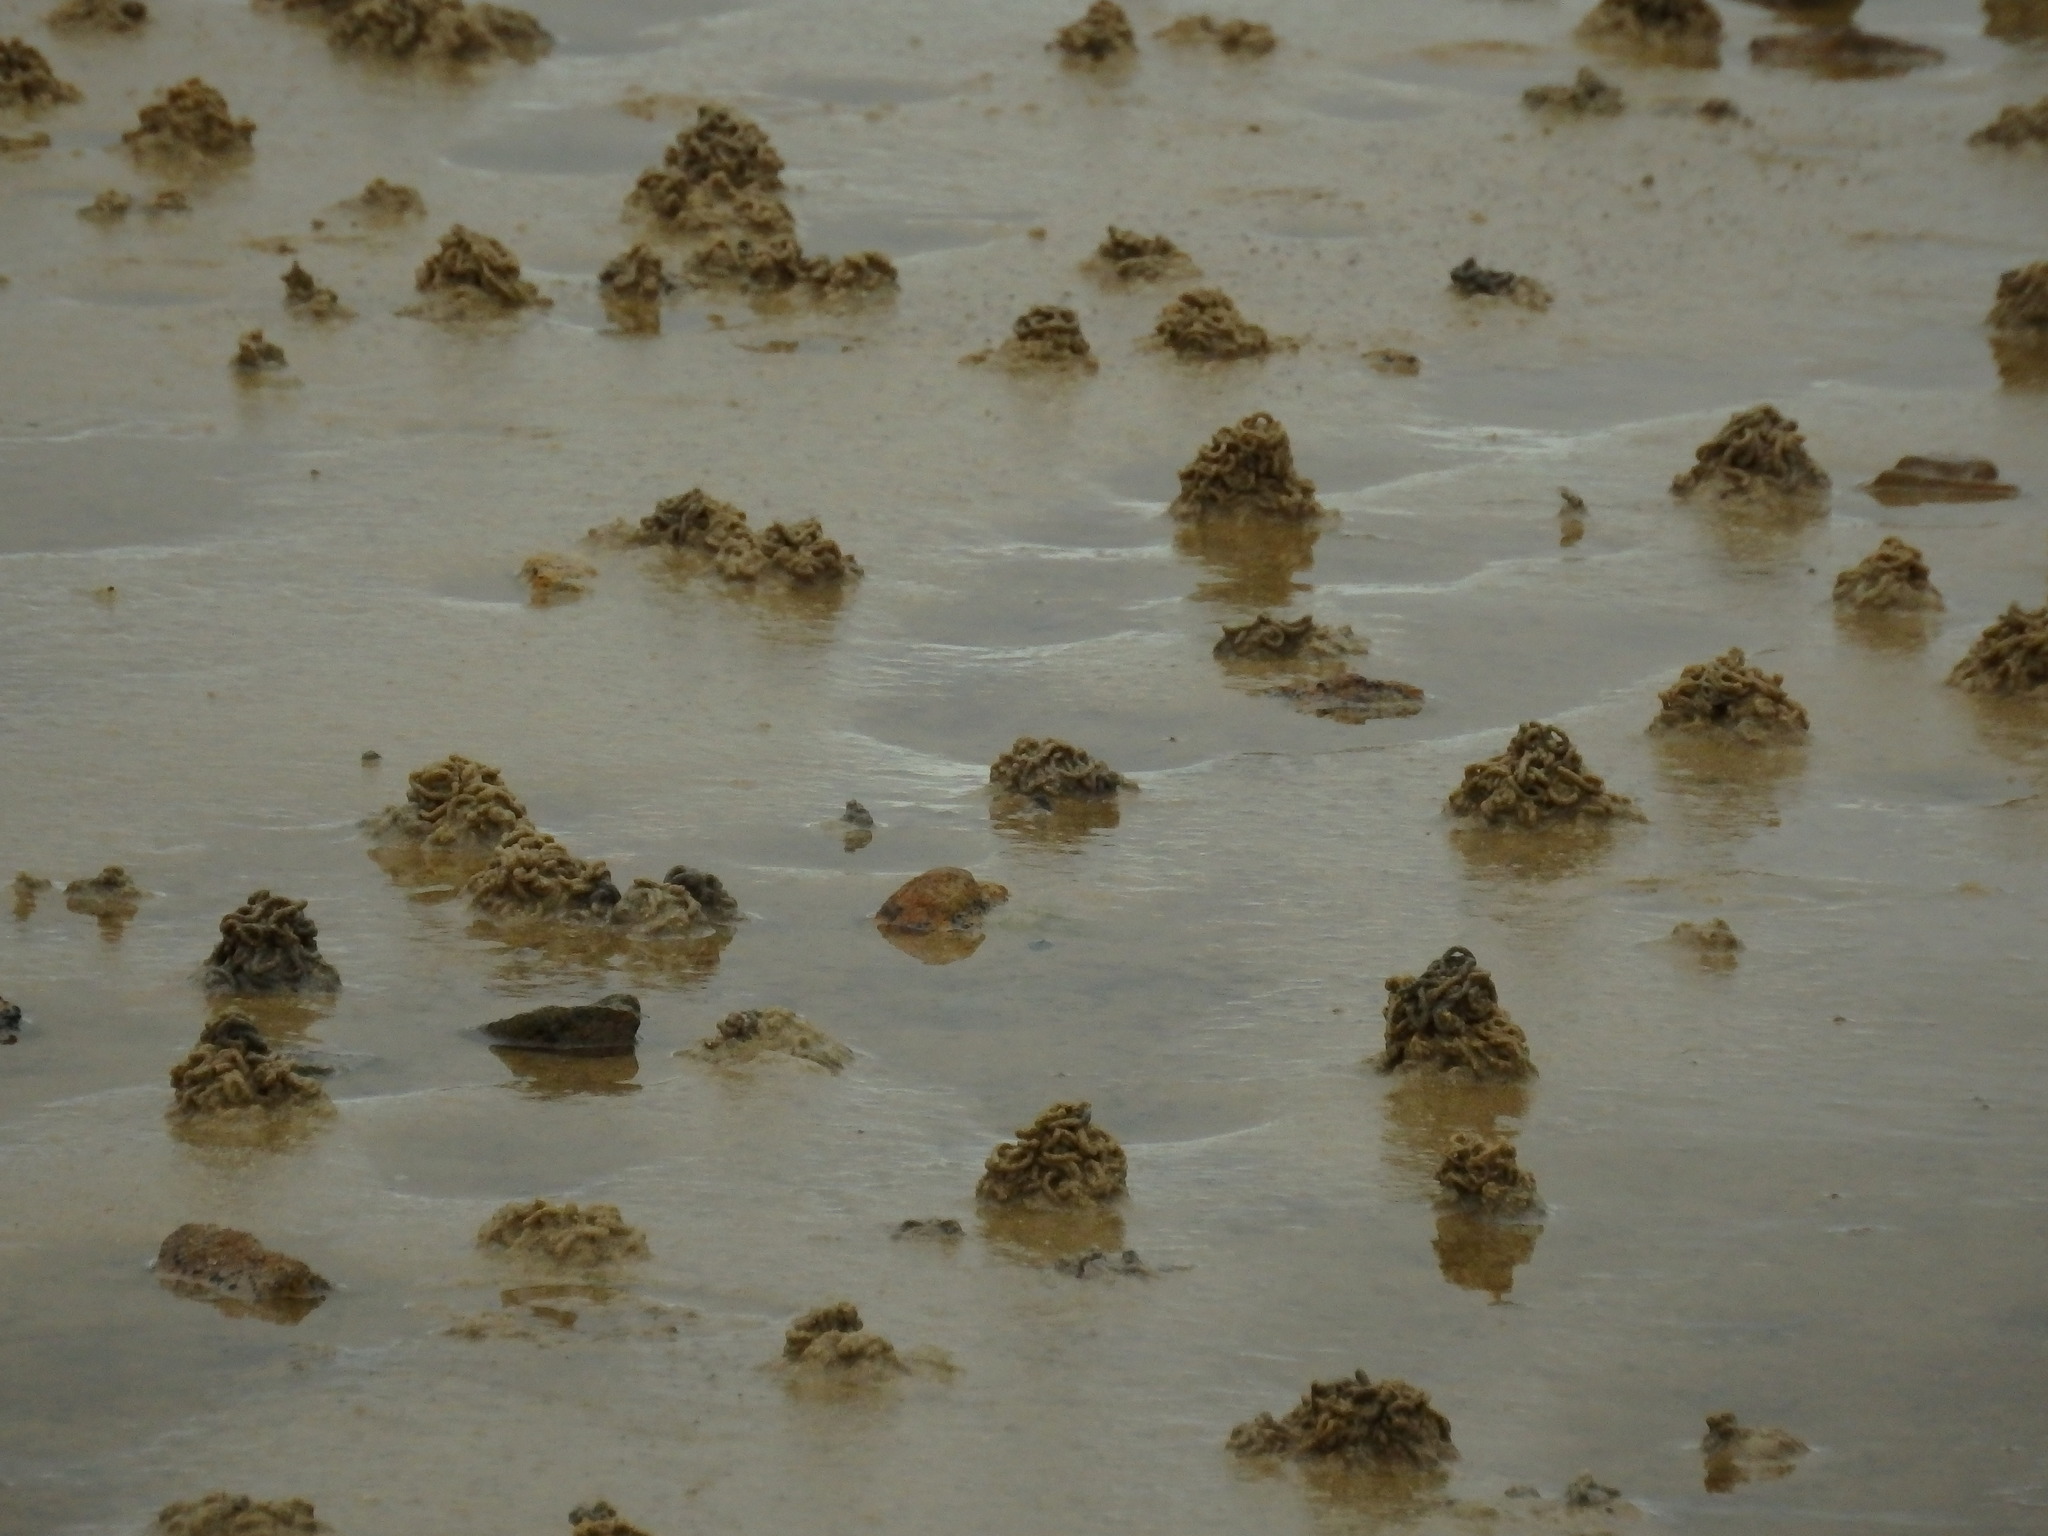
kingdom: Animalia
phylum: Annelida
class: Polychaeta
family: Arenicolidae
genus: Arenicola
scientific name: Arenicola marina
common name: Blow lugworm
